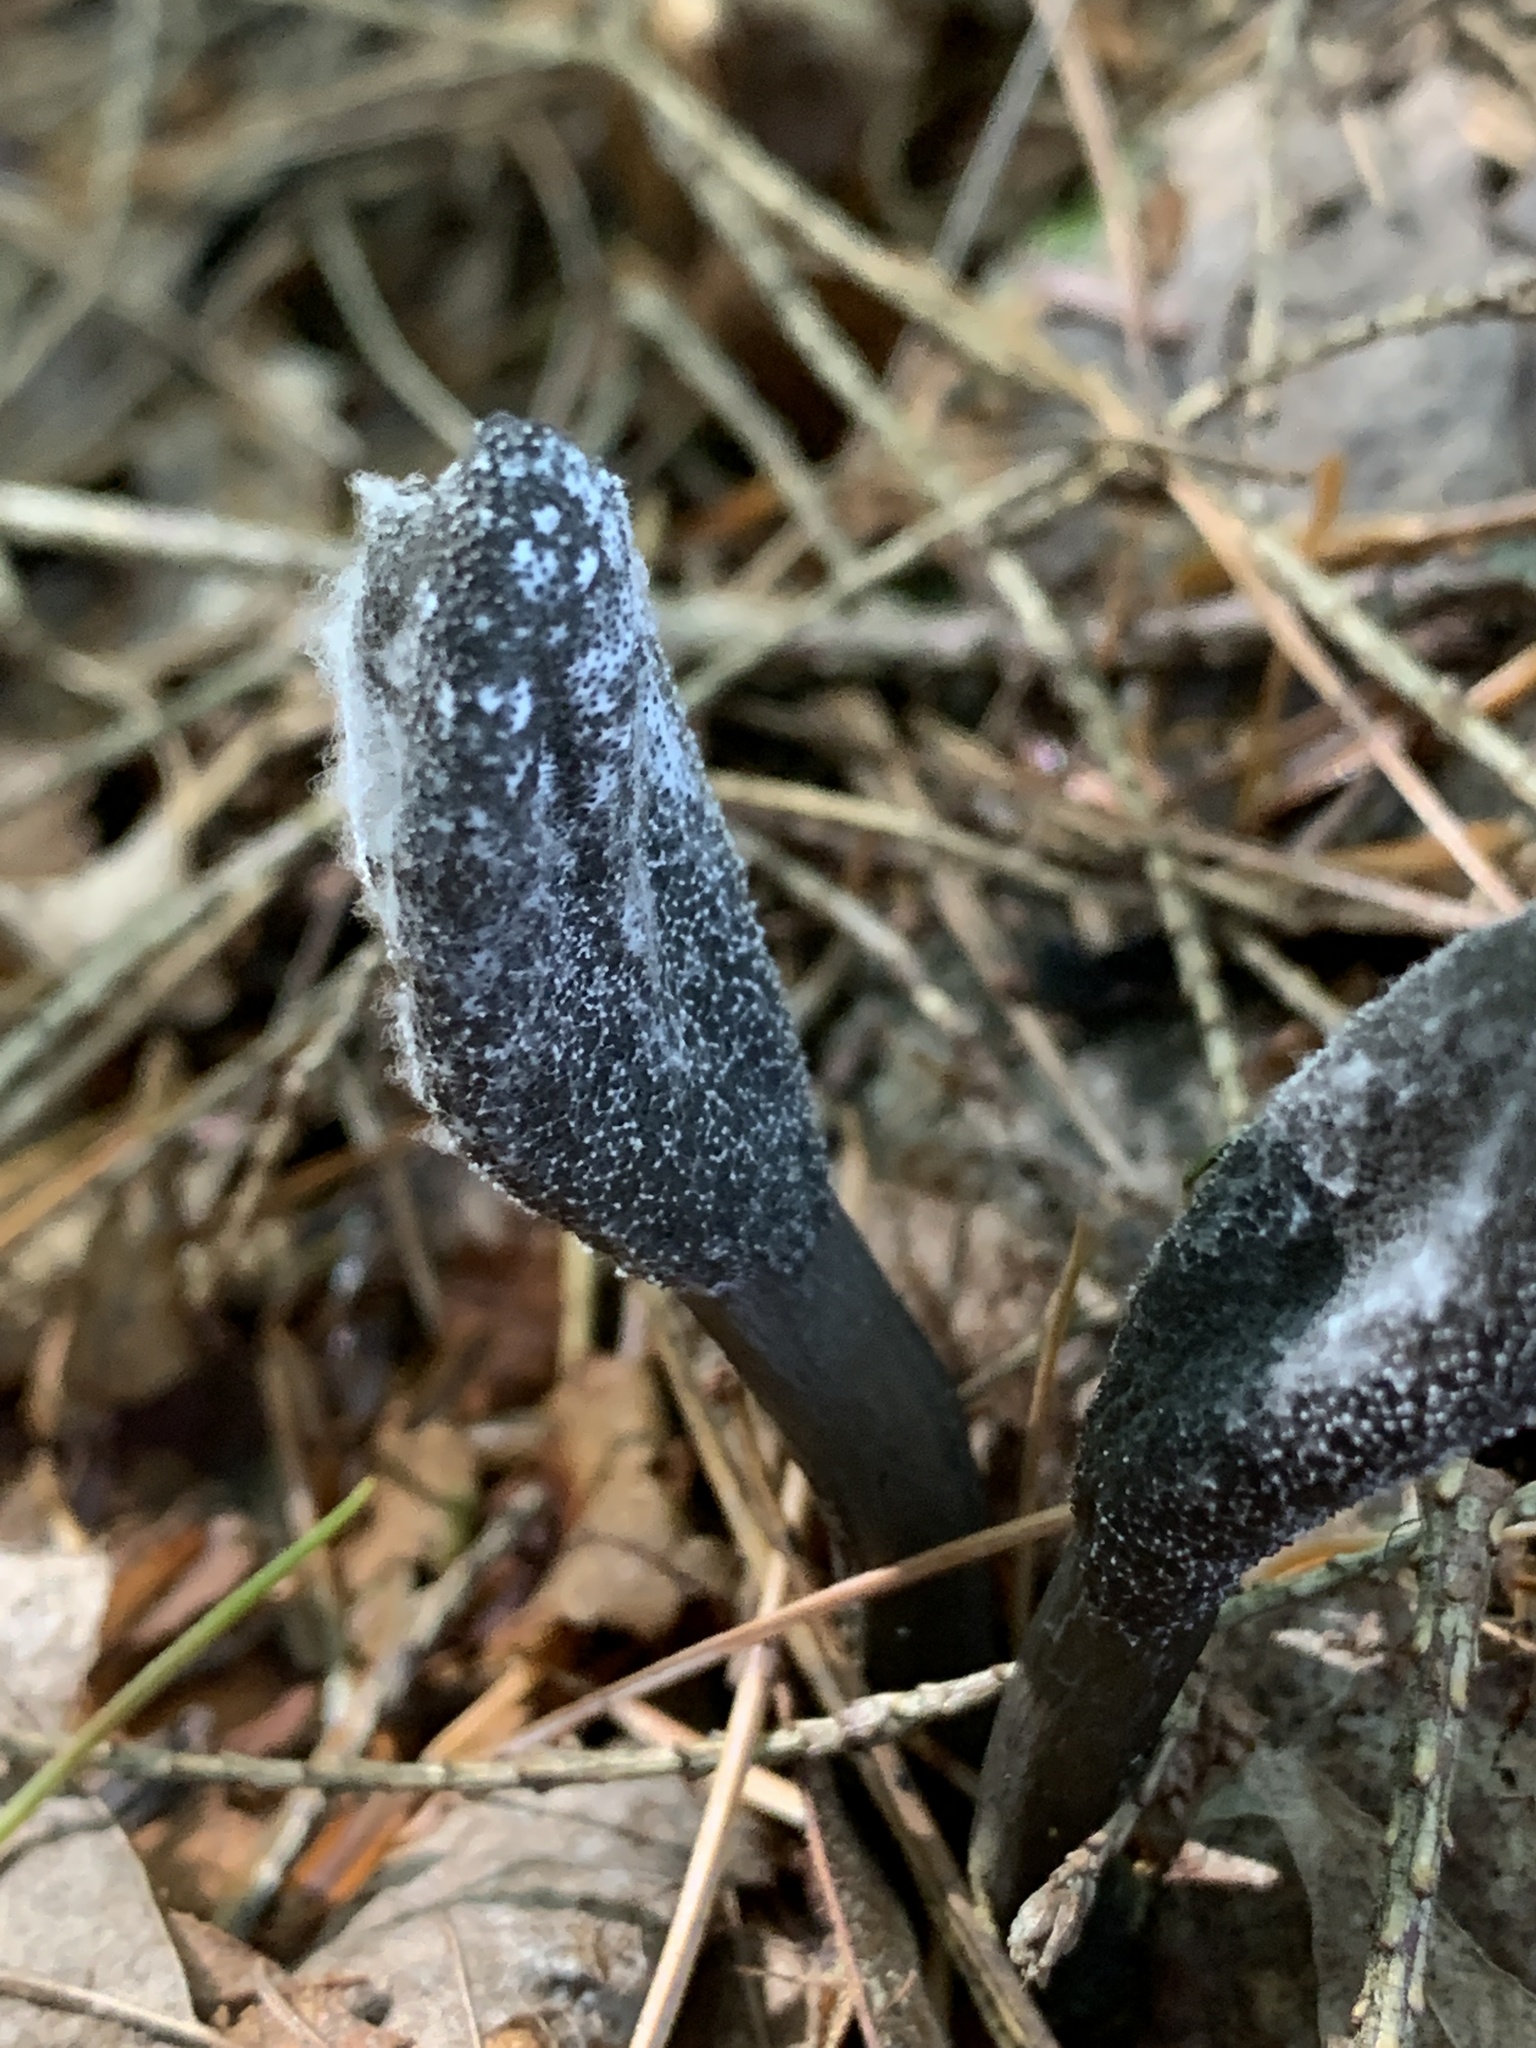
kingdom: Fungi
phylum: Ascomycota
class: Sordariomycetes
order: Hypocreales
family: Ophiocordycipitaceae
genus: Tolypocladium
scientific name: Tolypocladium ophioglossoides
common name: Snaketongue truffleclub
